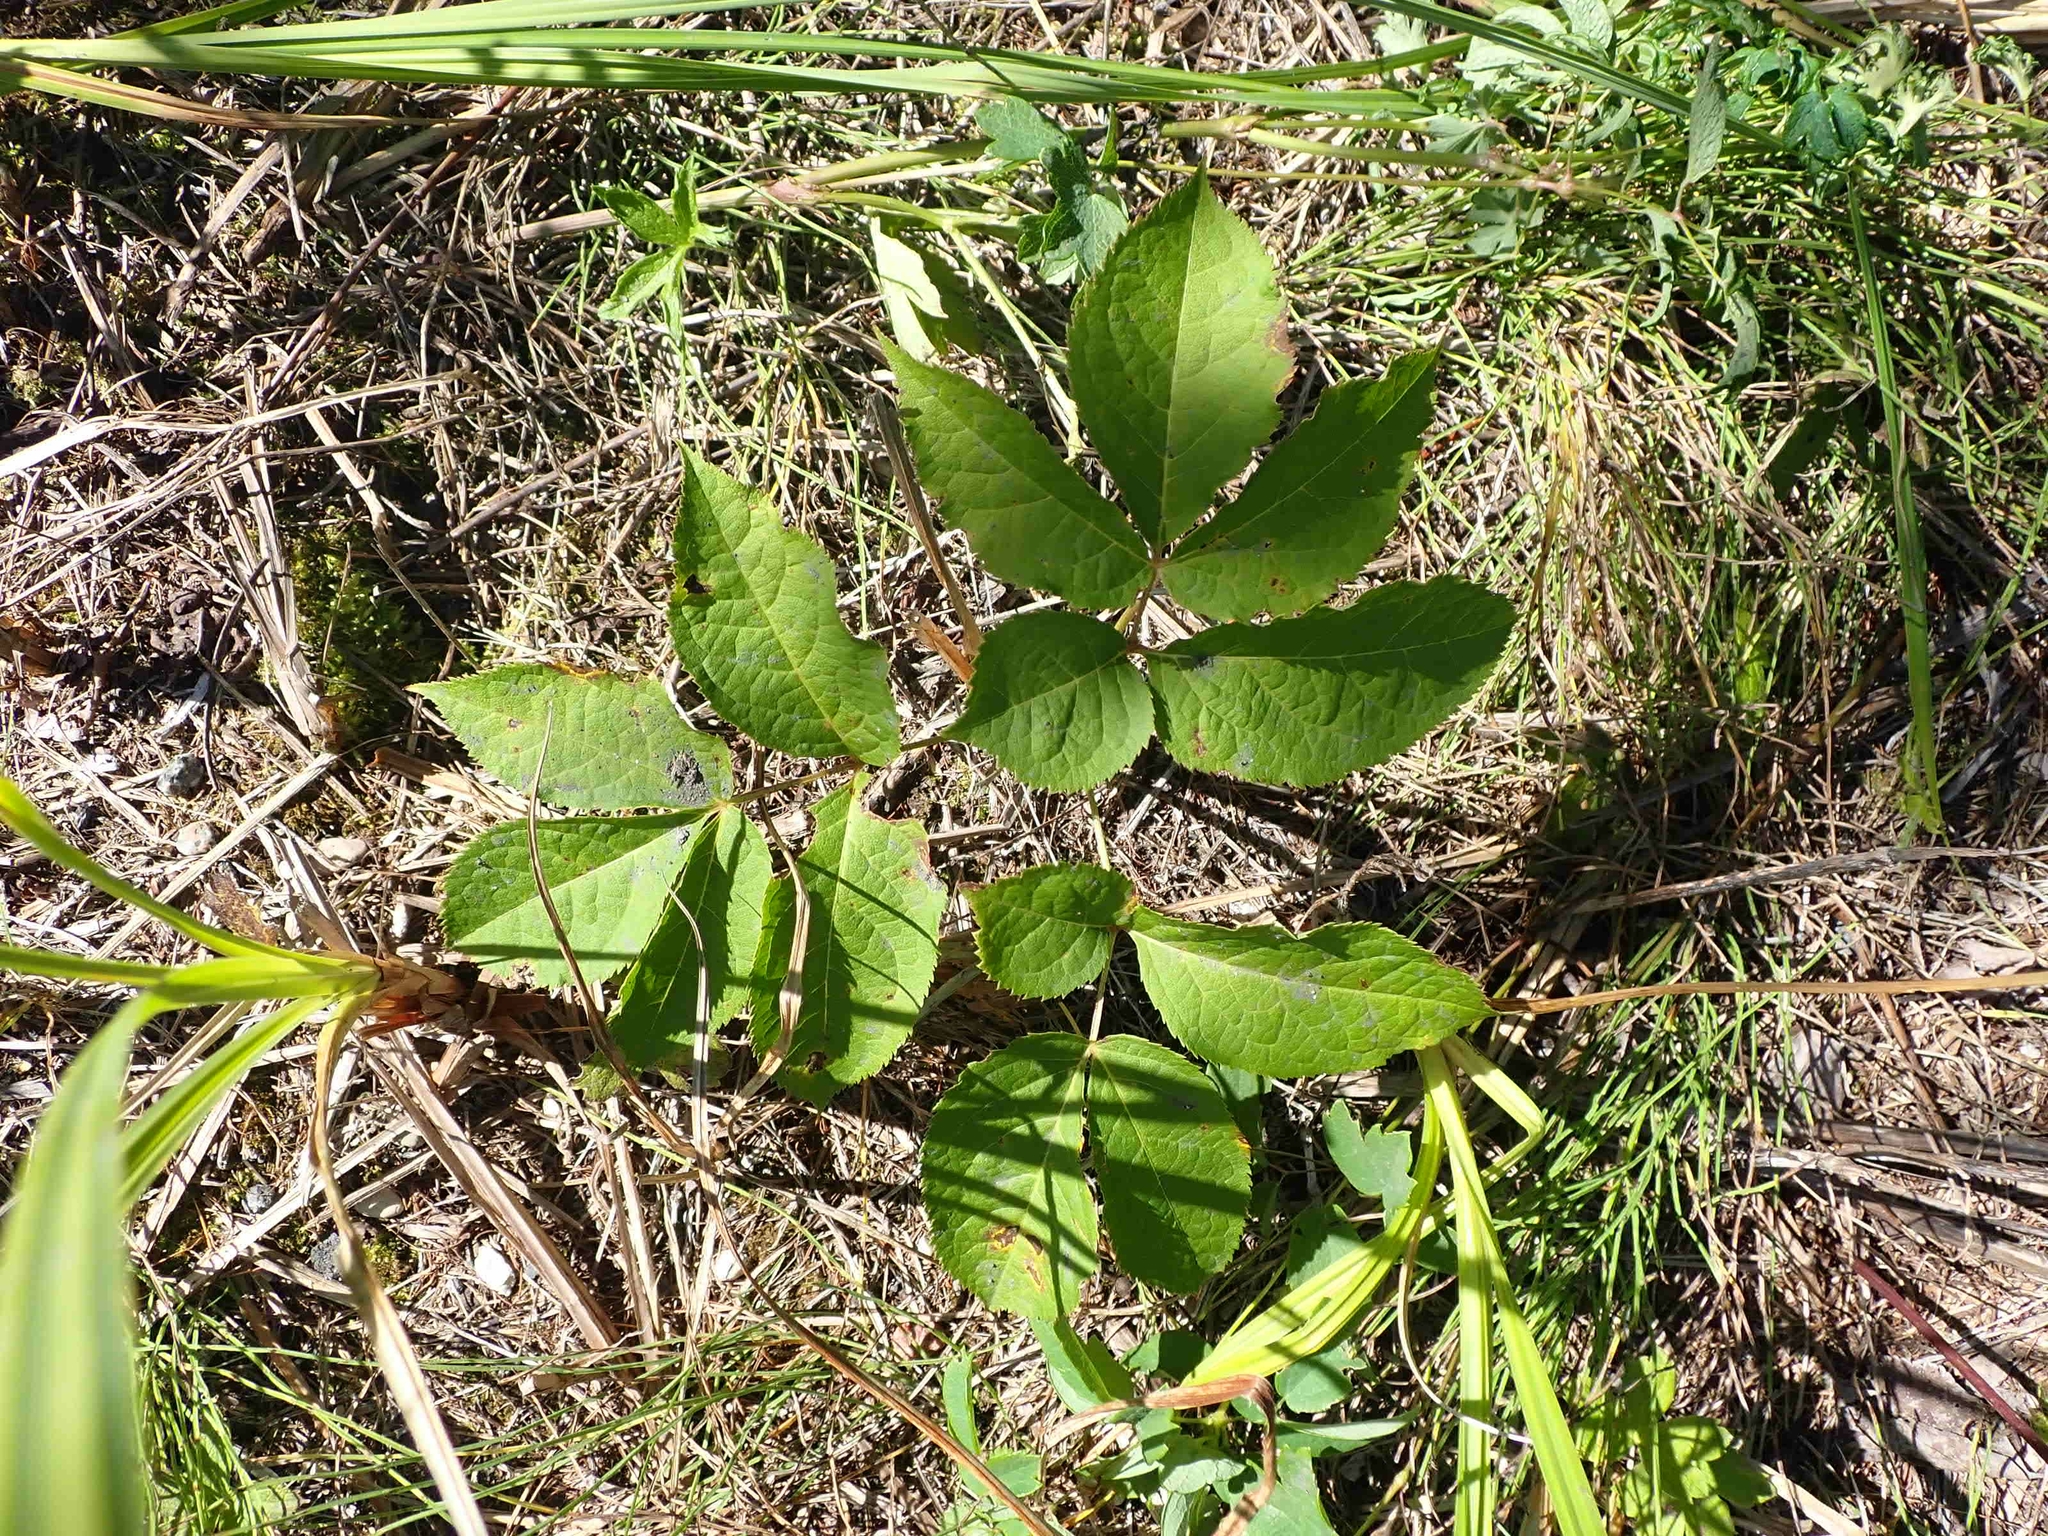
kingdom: Plantae
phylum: Tracheophyta
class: Magnoliopsida
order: Apiales
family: Araliaceae
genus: Aralia
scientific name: Aralia nudicaulis
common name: Wild sarsaparilla
